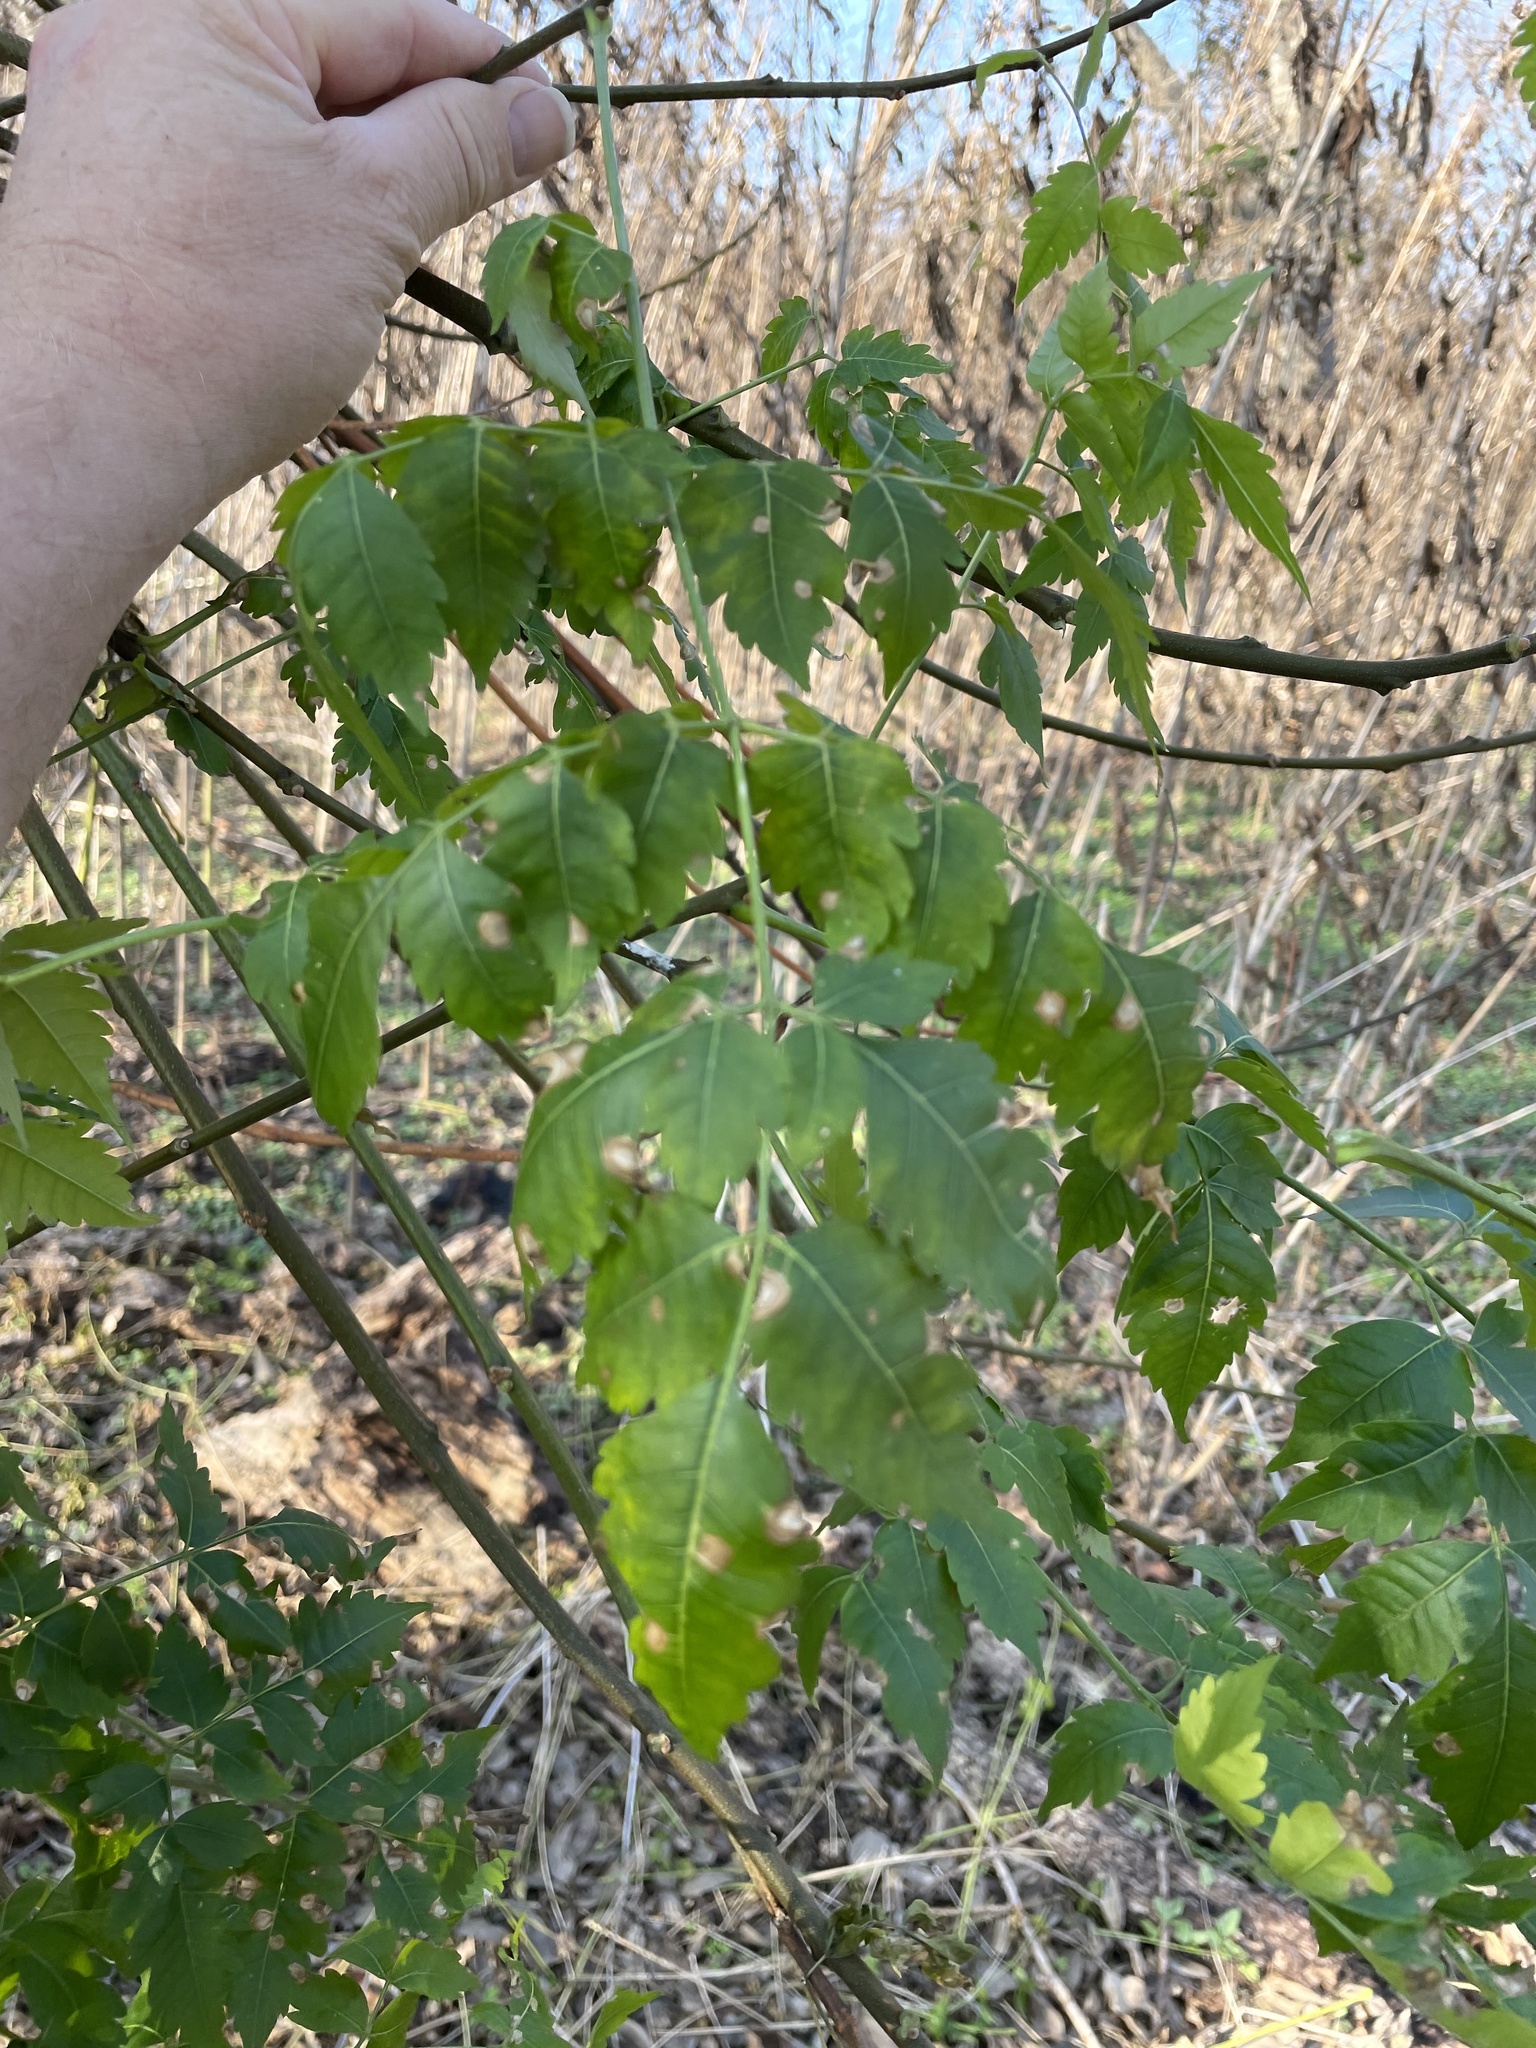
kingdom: Plantae
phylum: Tracheophyta
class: Magnoliopsida
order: Sapindales
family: Meliaceae
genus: Melia
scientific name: Melia azedarach
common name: Chinaberrytree
